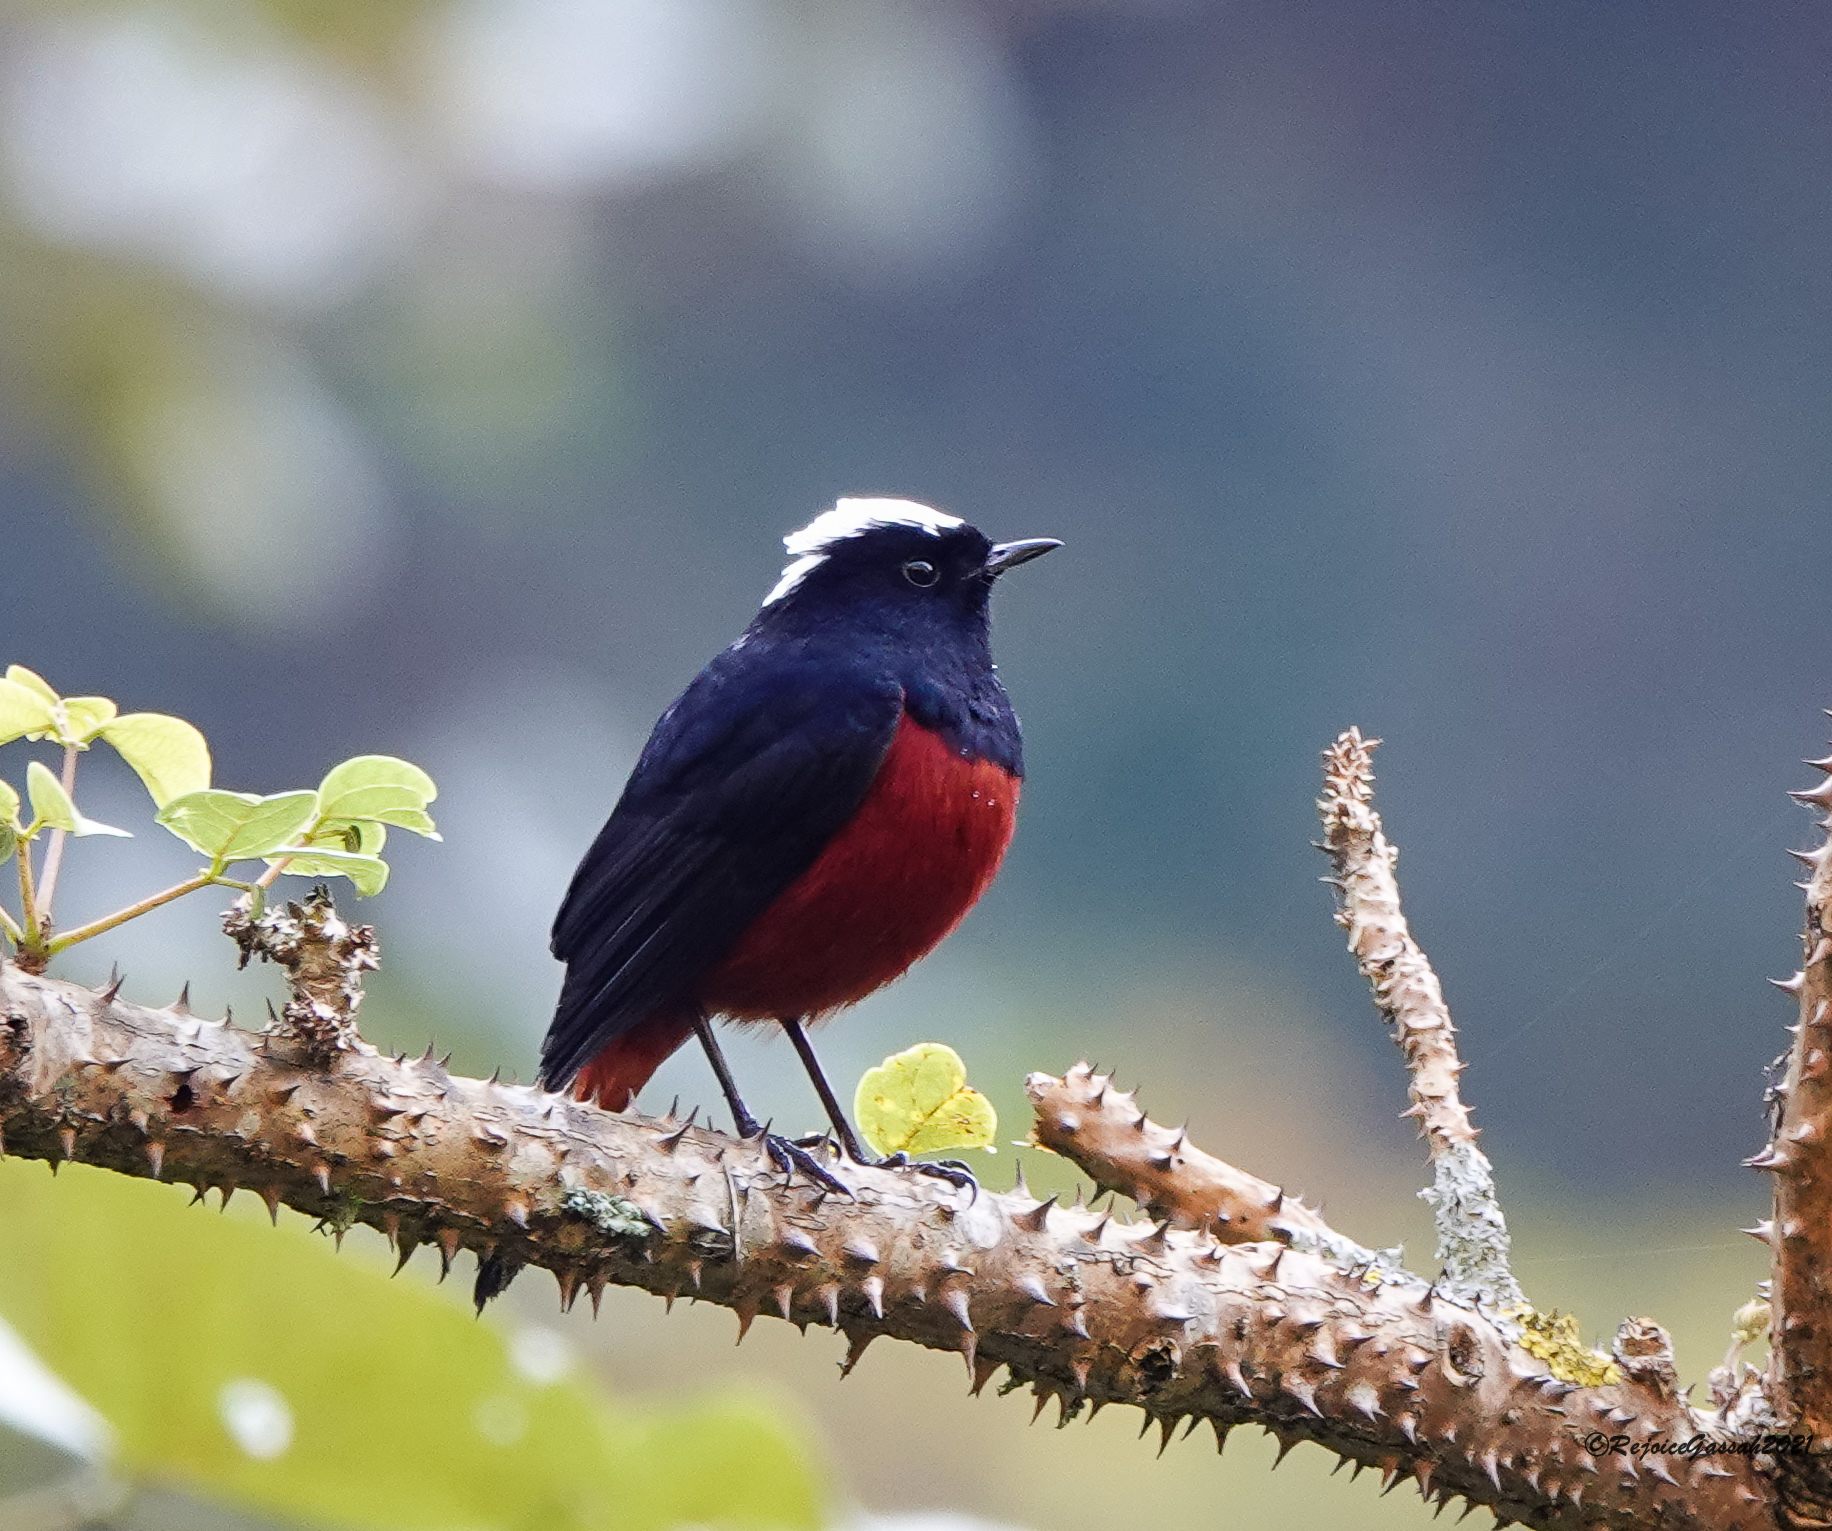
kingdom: Animalia
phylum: Chordata
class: Aves
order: Passeriformes
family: Muscicapidae
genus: Chaimarrornis
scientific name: Chaimarrornis leucocephalus
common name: White-capped redstart
